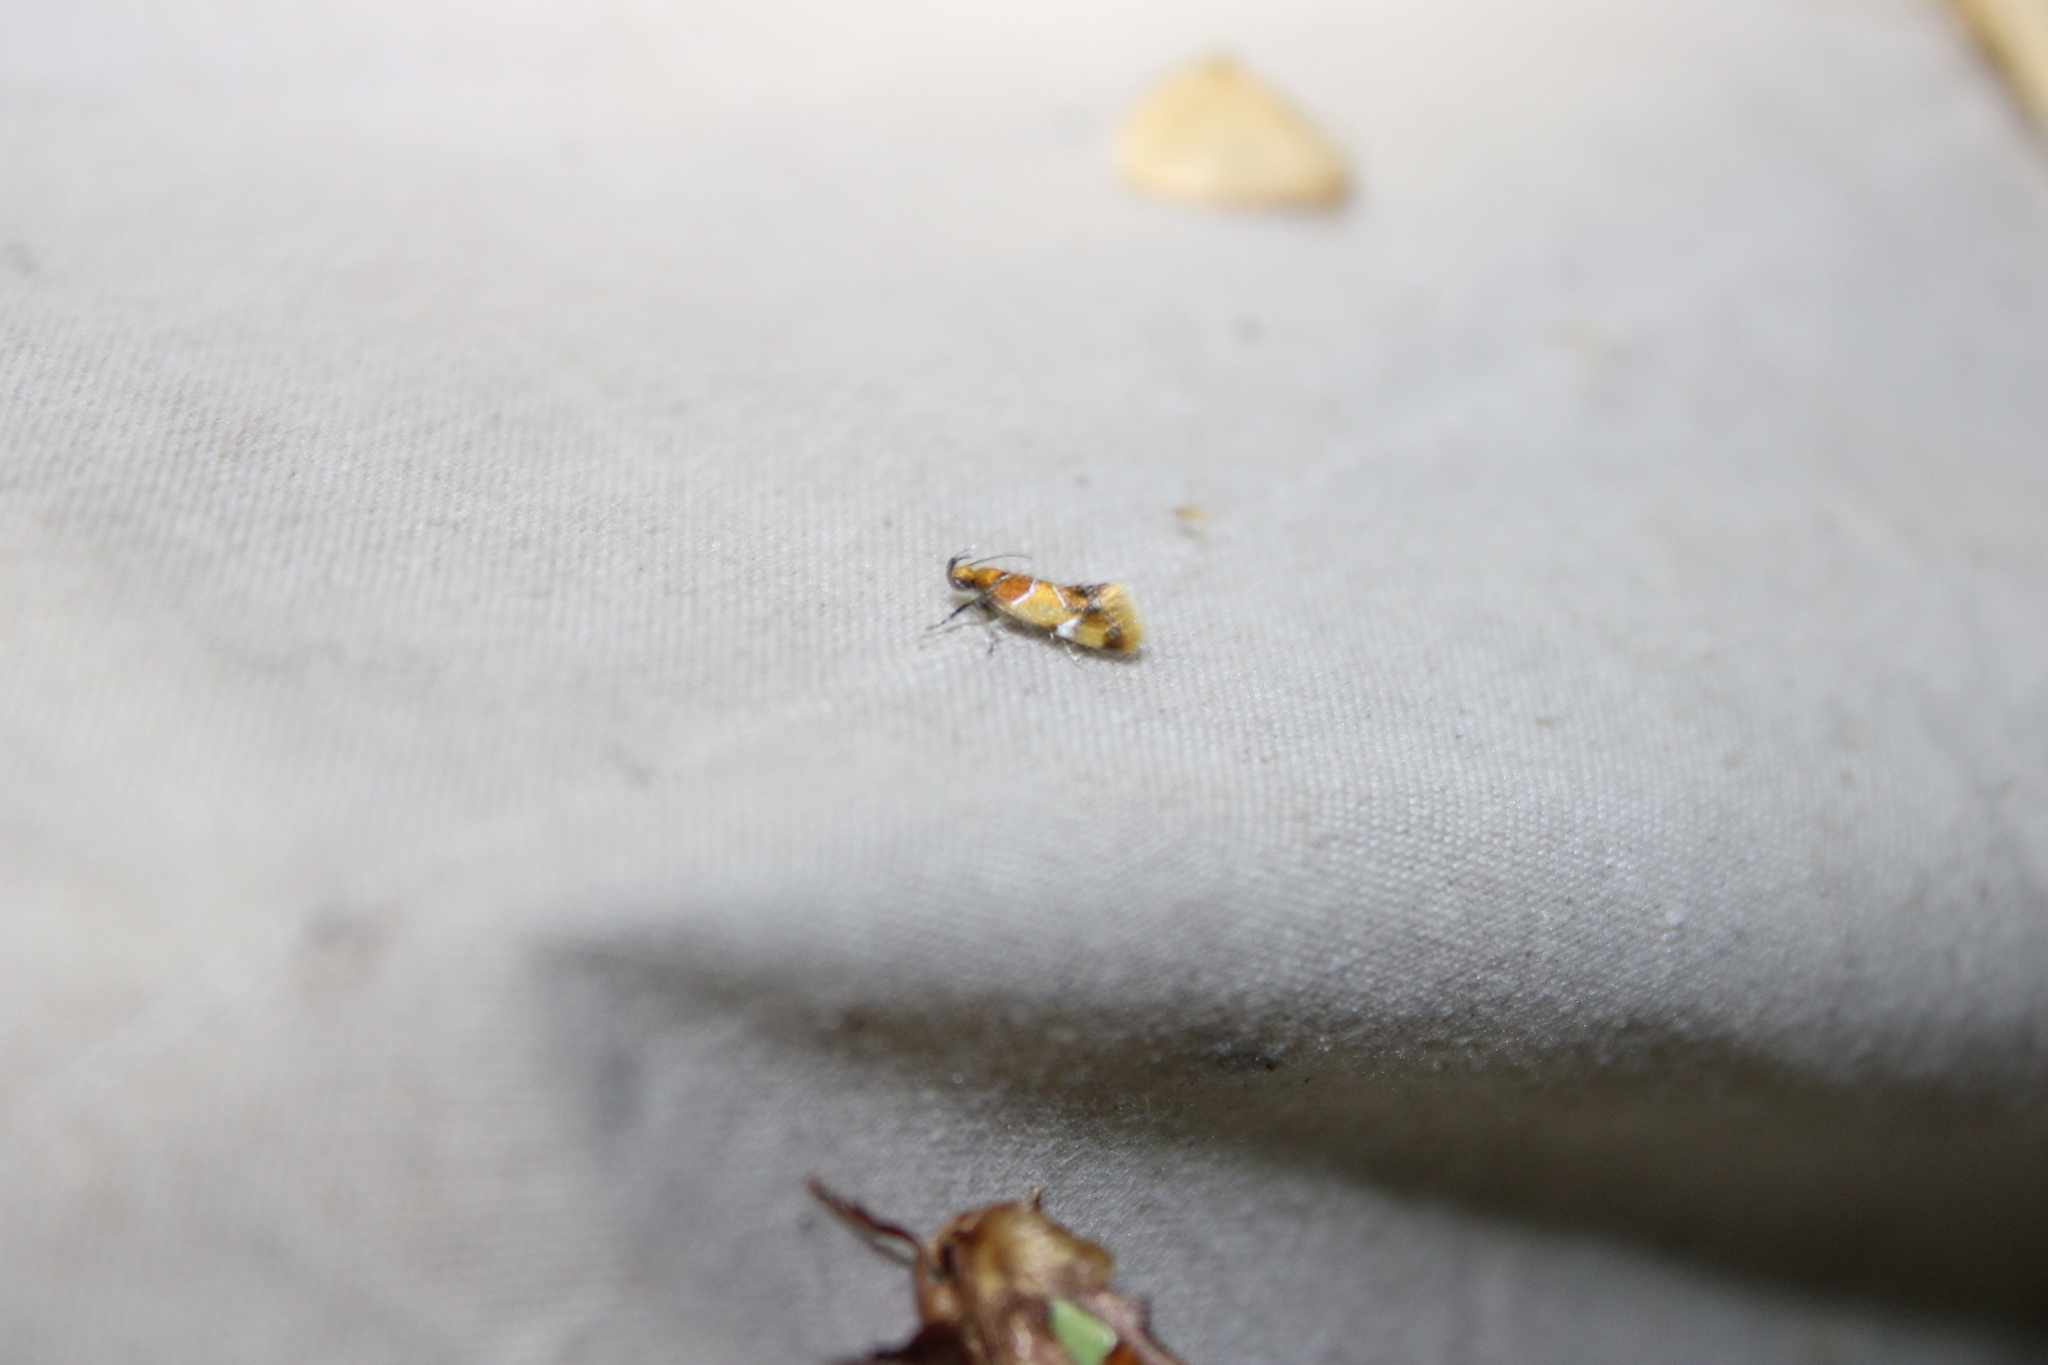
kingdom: Animalia
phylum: Arthropoda
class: Insecta
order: Lepidoptera
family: Oecophoridae
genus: Callima
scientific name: Callima argenticinctella
